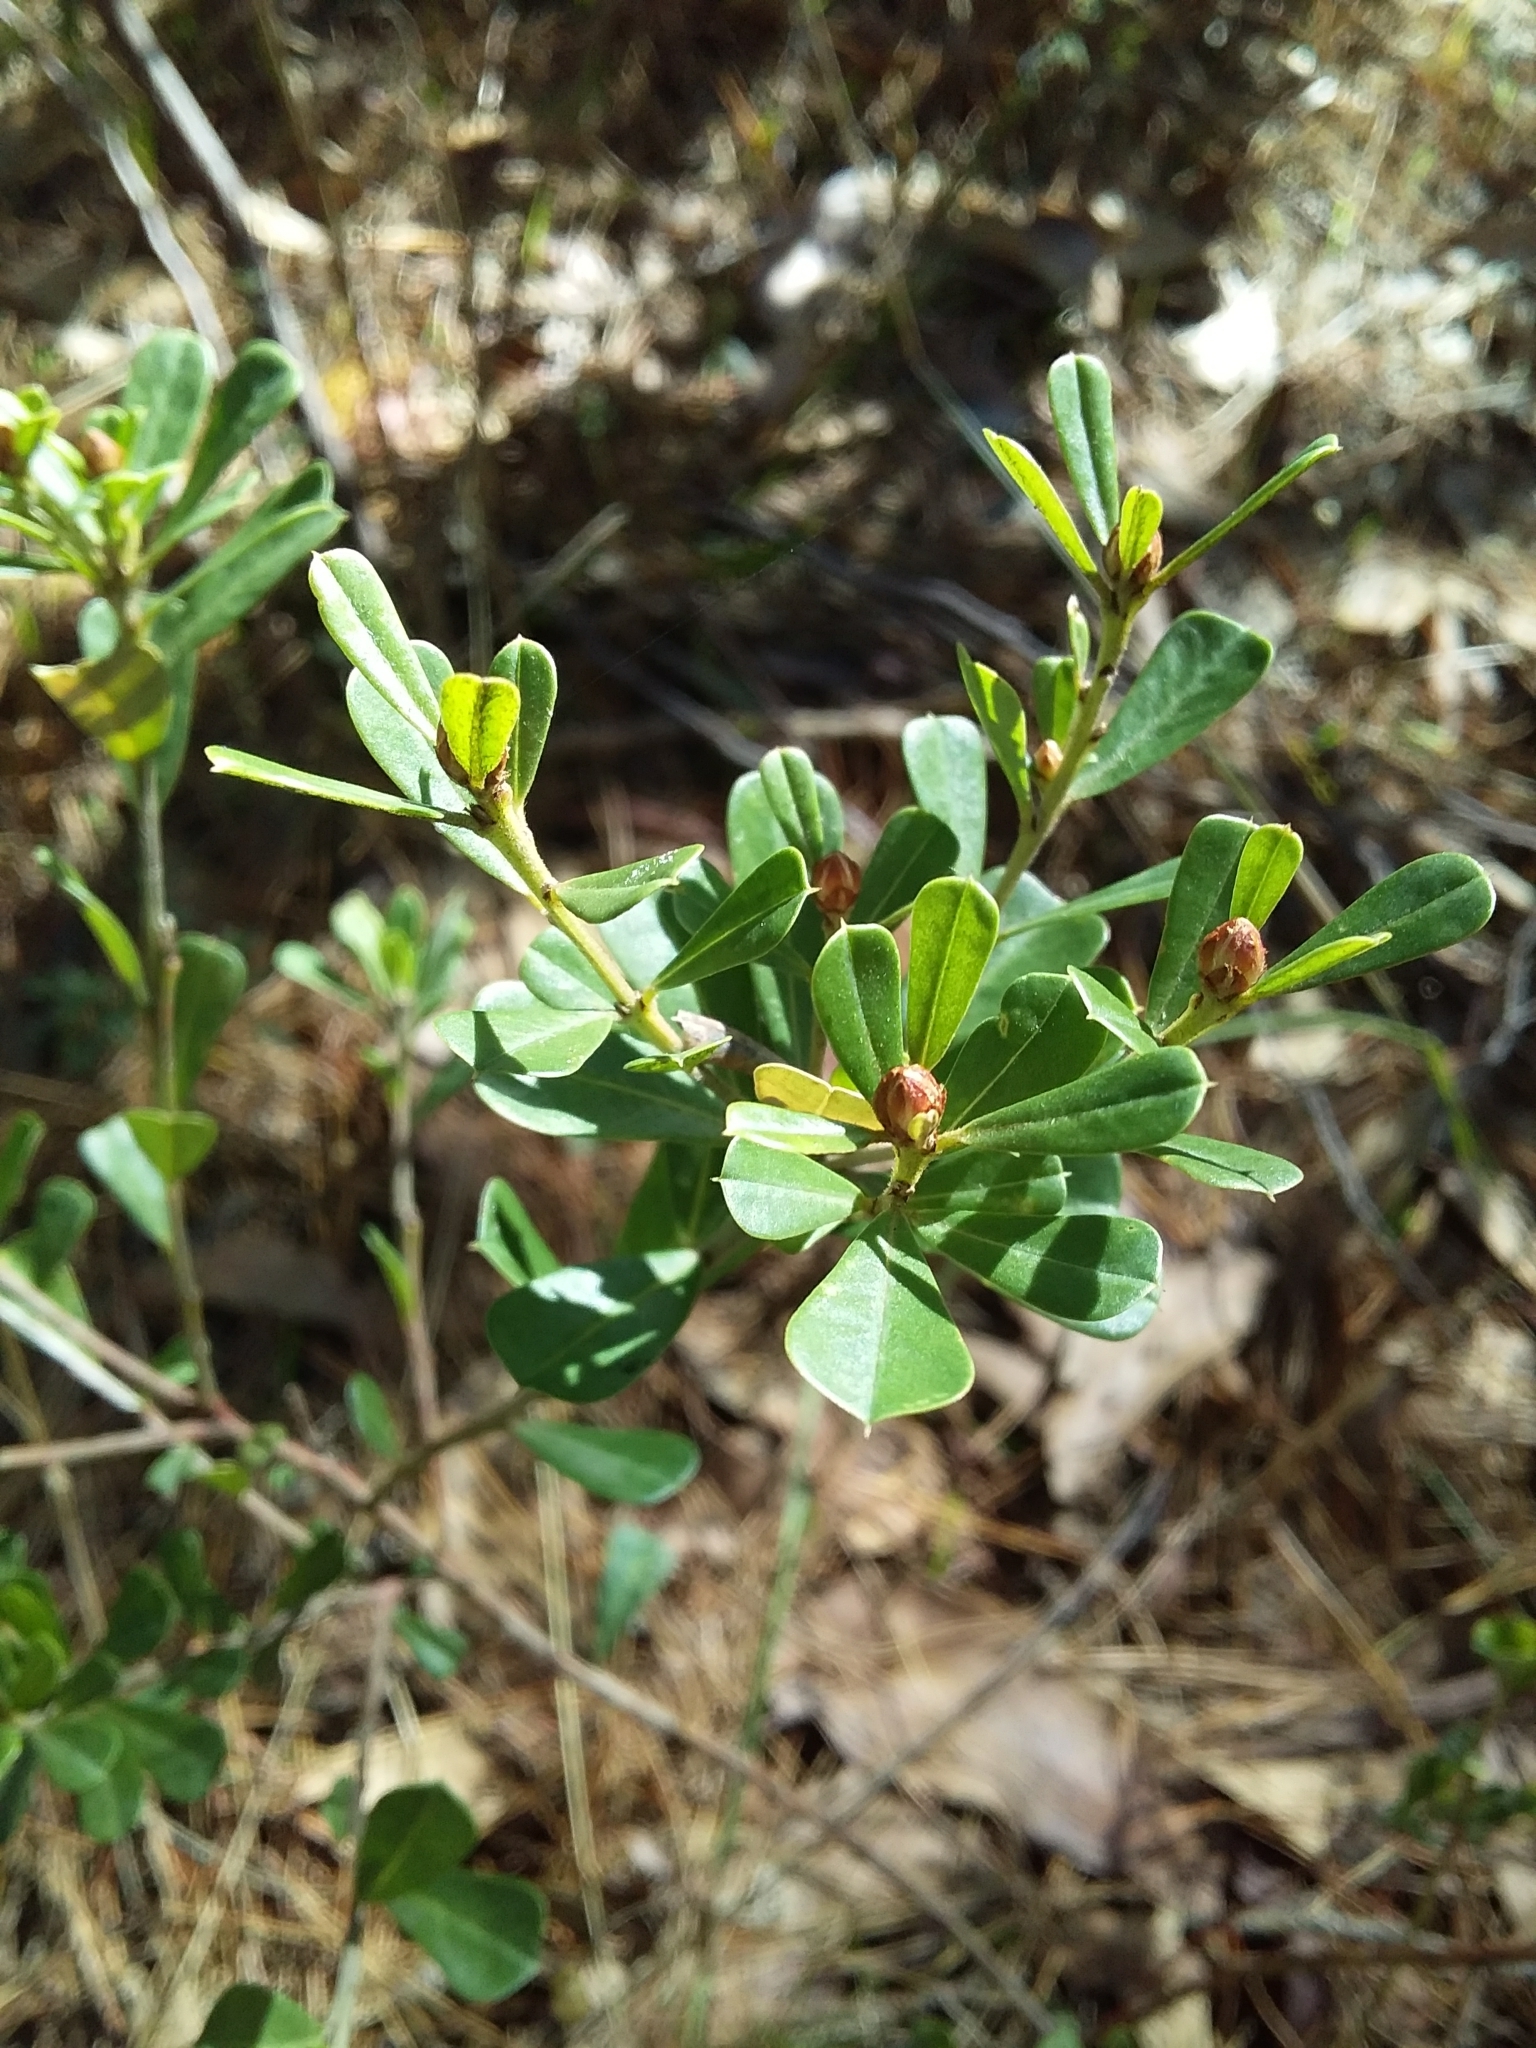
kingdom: Plantae
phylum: Tracheophyta
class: Magnoliopsida
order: Fabales
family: Fabaceae
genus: Pultenaea
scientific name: Pultenaea daphnoides
